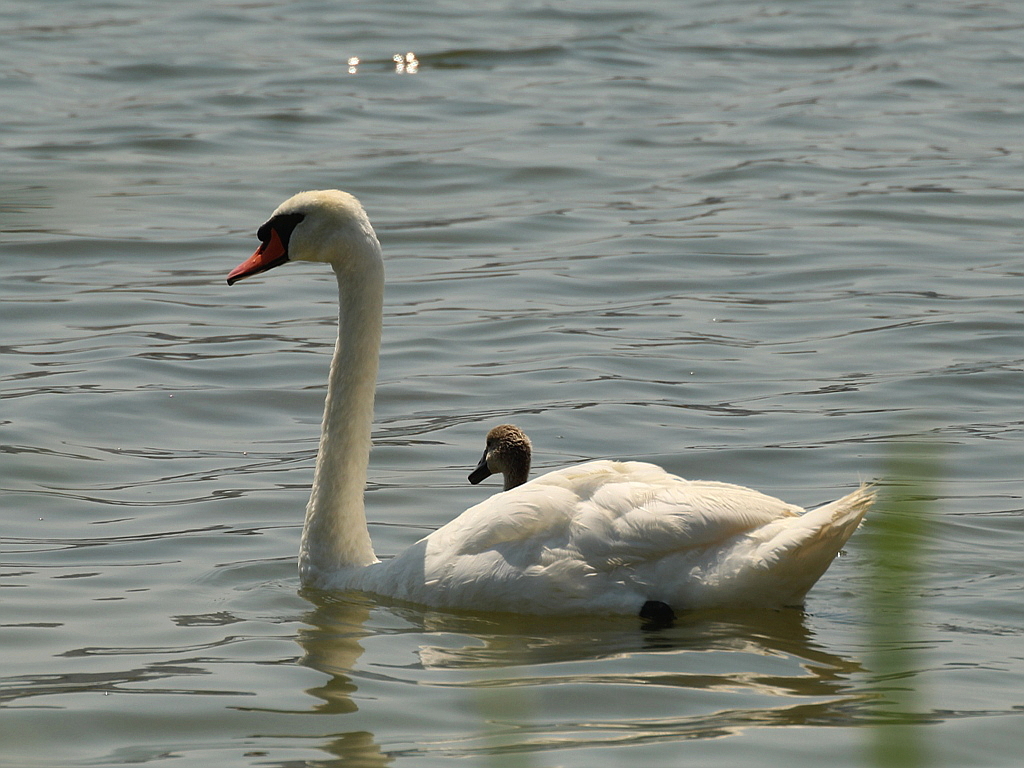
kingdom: Animalia
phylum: Chordata
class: Aves
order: Anseriformes
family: Anatidae
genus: Cygnus
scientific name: Cygnus olor
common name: Mute swan
